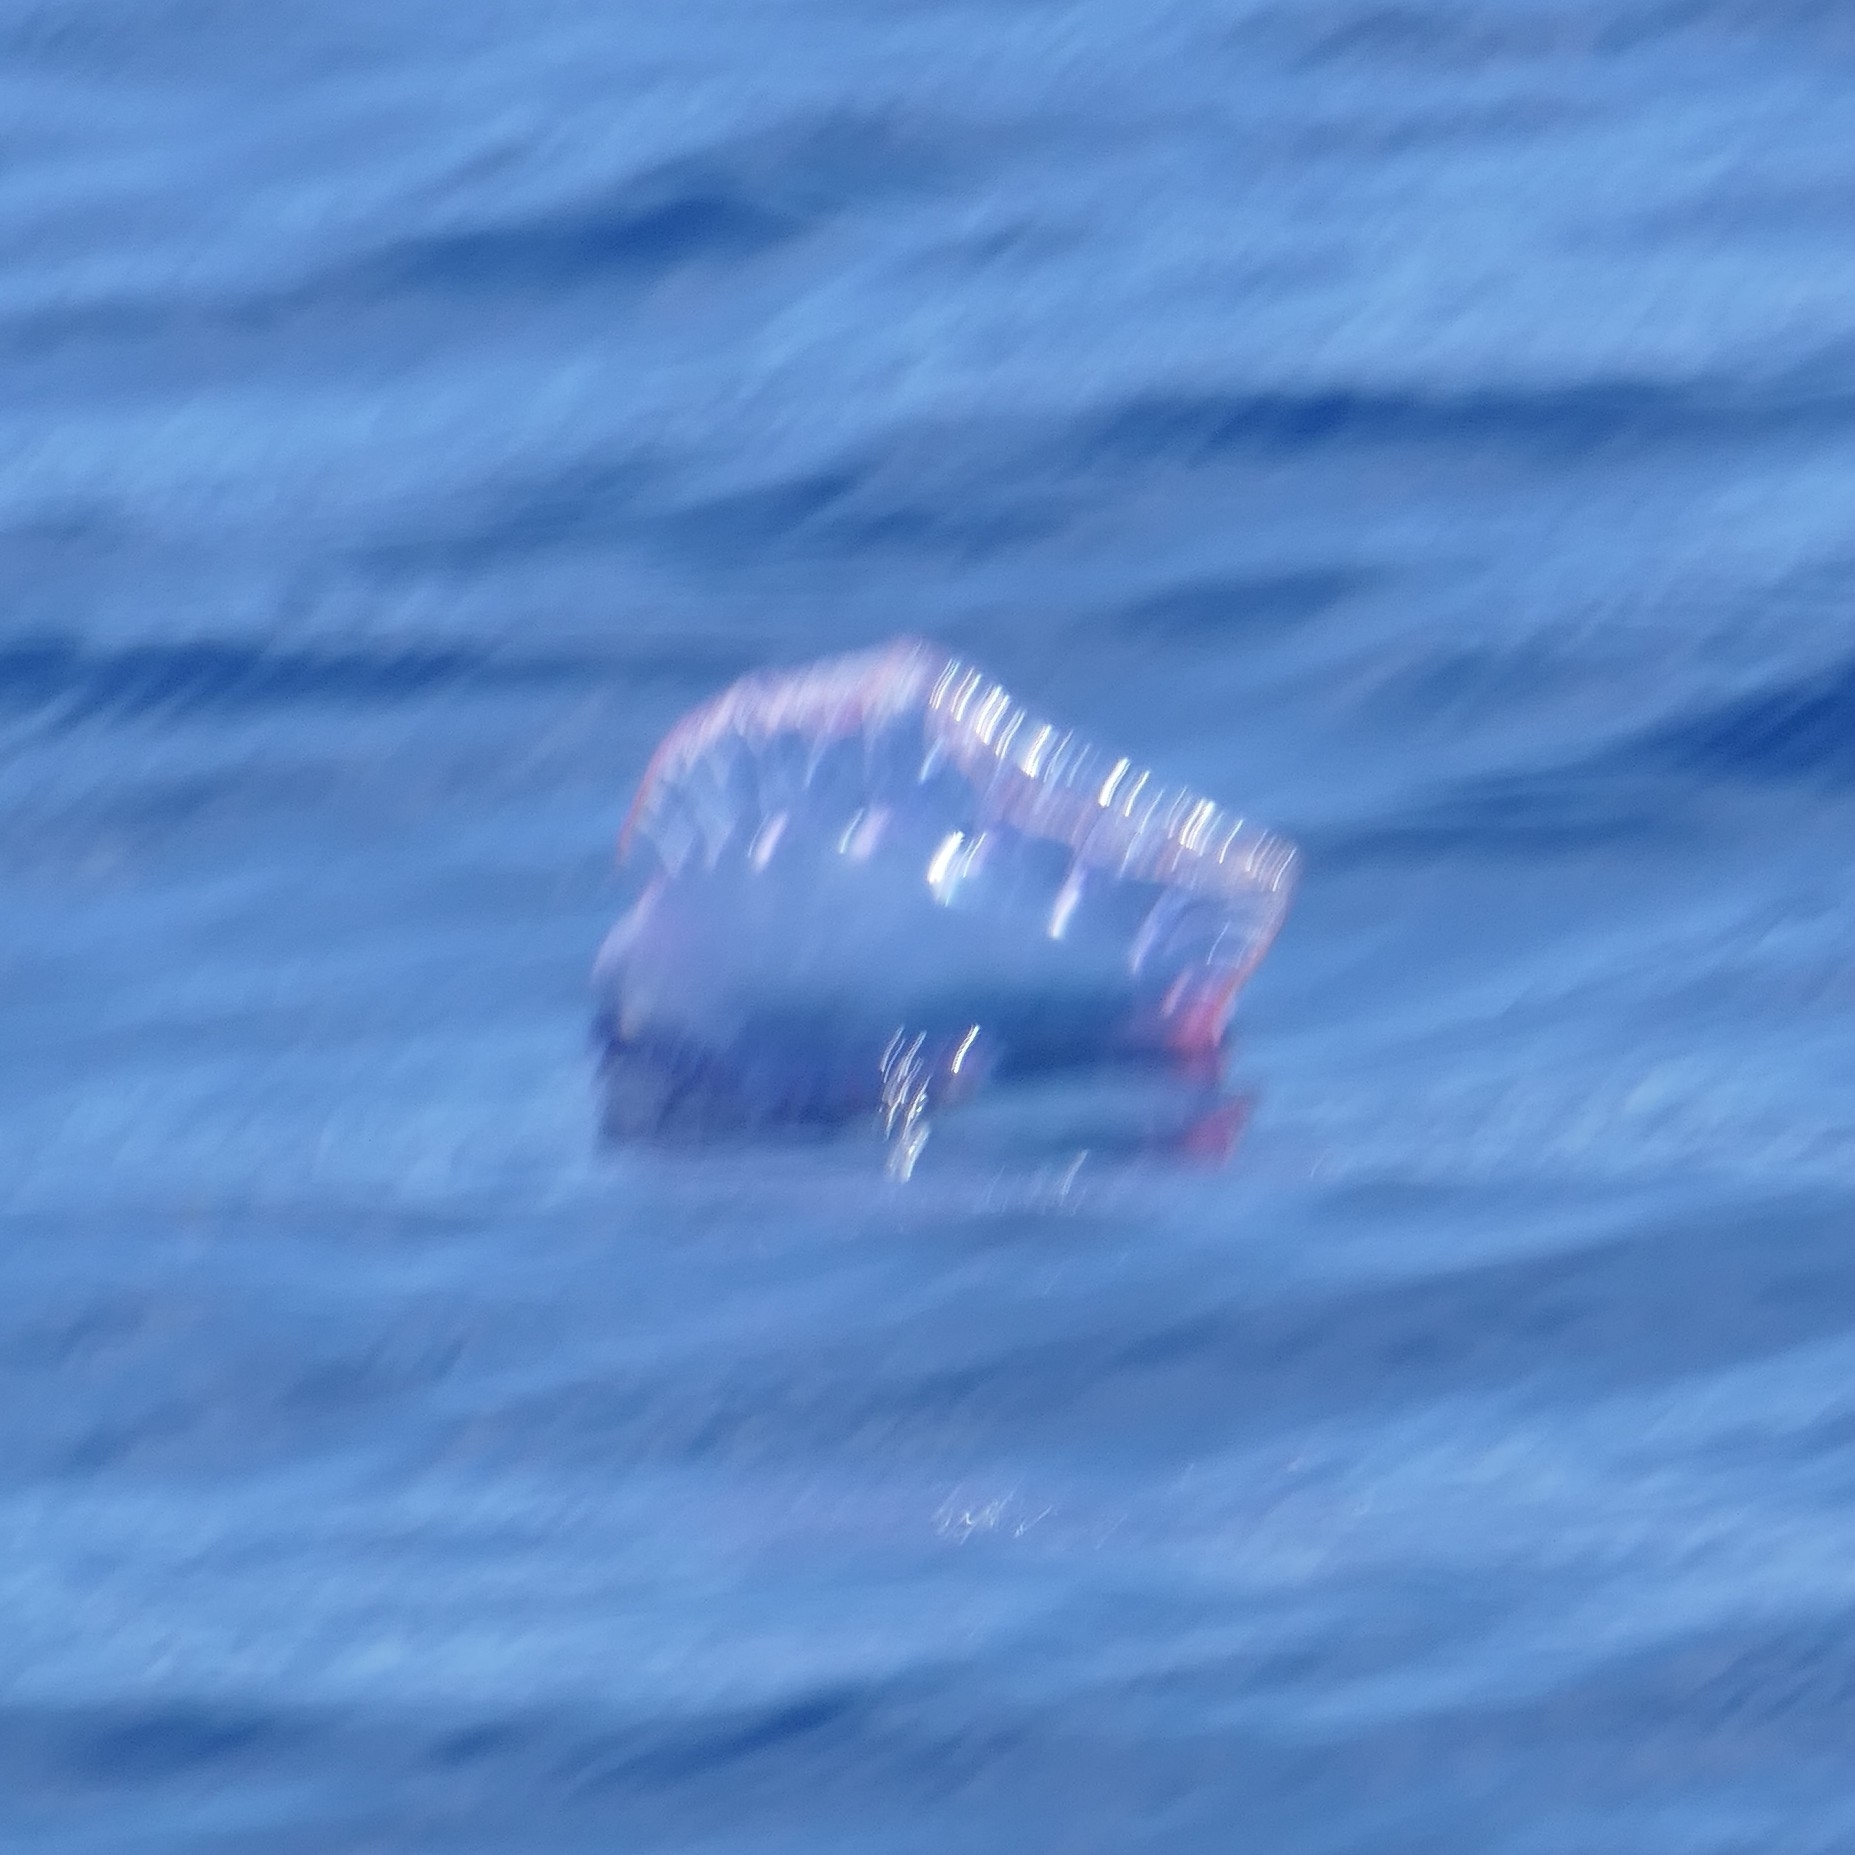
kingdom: Animalia
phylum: Cnidaria
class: Hydrozoa
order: Siphonophorae
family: Physaliidae
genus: Physalia
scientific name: Physalia physalis
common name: Portuguese man-of-war
